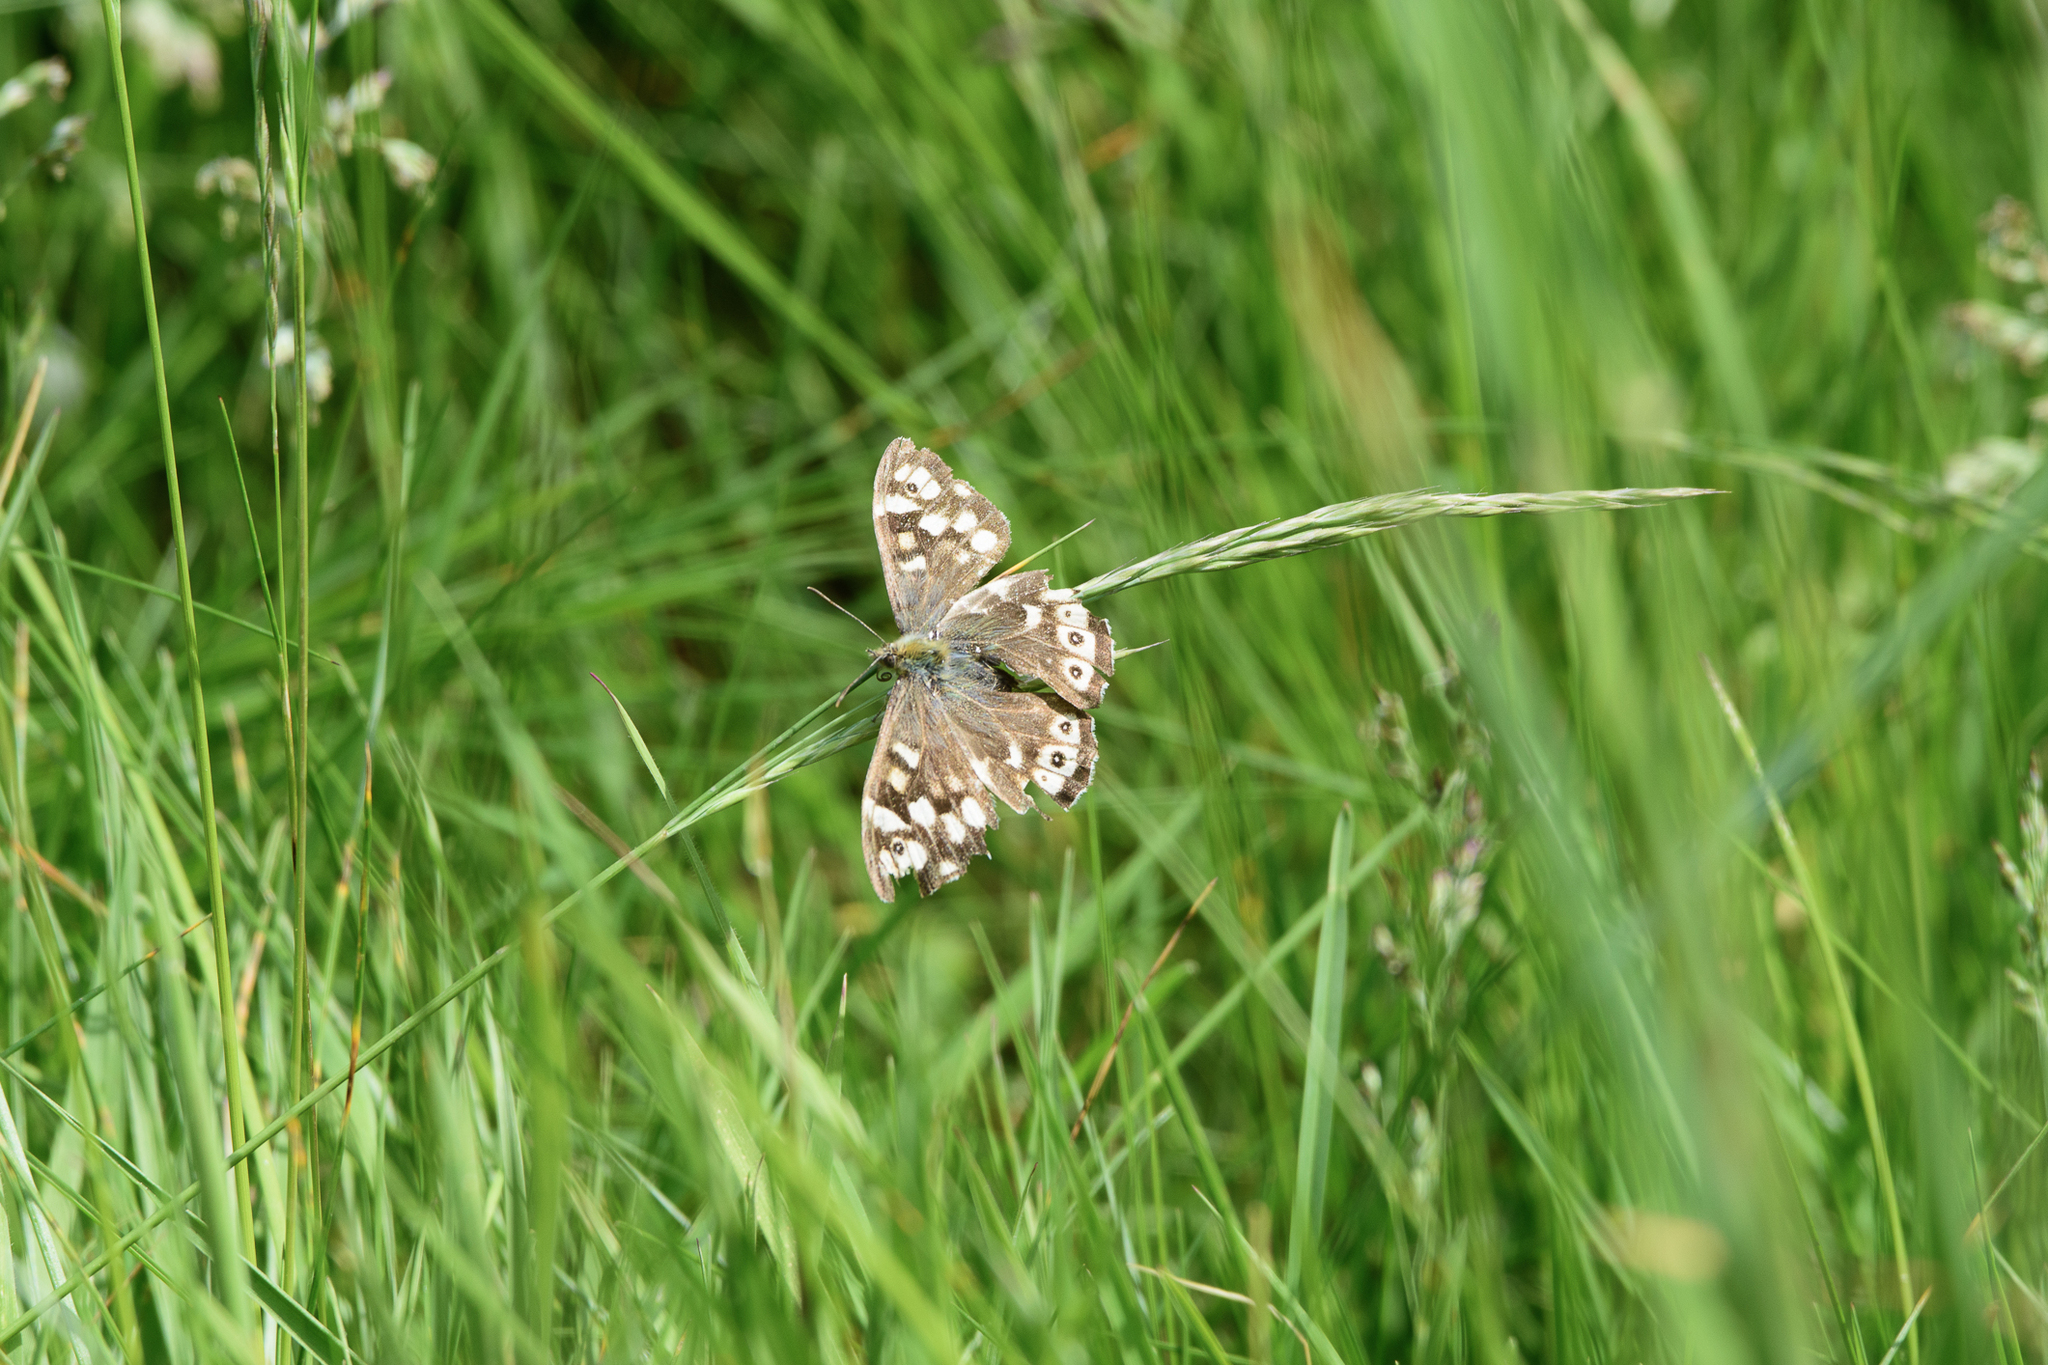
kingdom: Animalia
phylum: Arthropoda
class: Insecta
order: Lepidoptera
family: Nymphalidae
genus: Pararge
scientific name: Pararge aegeria
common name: Speckled wood
